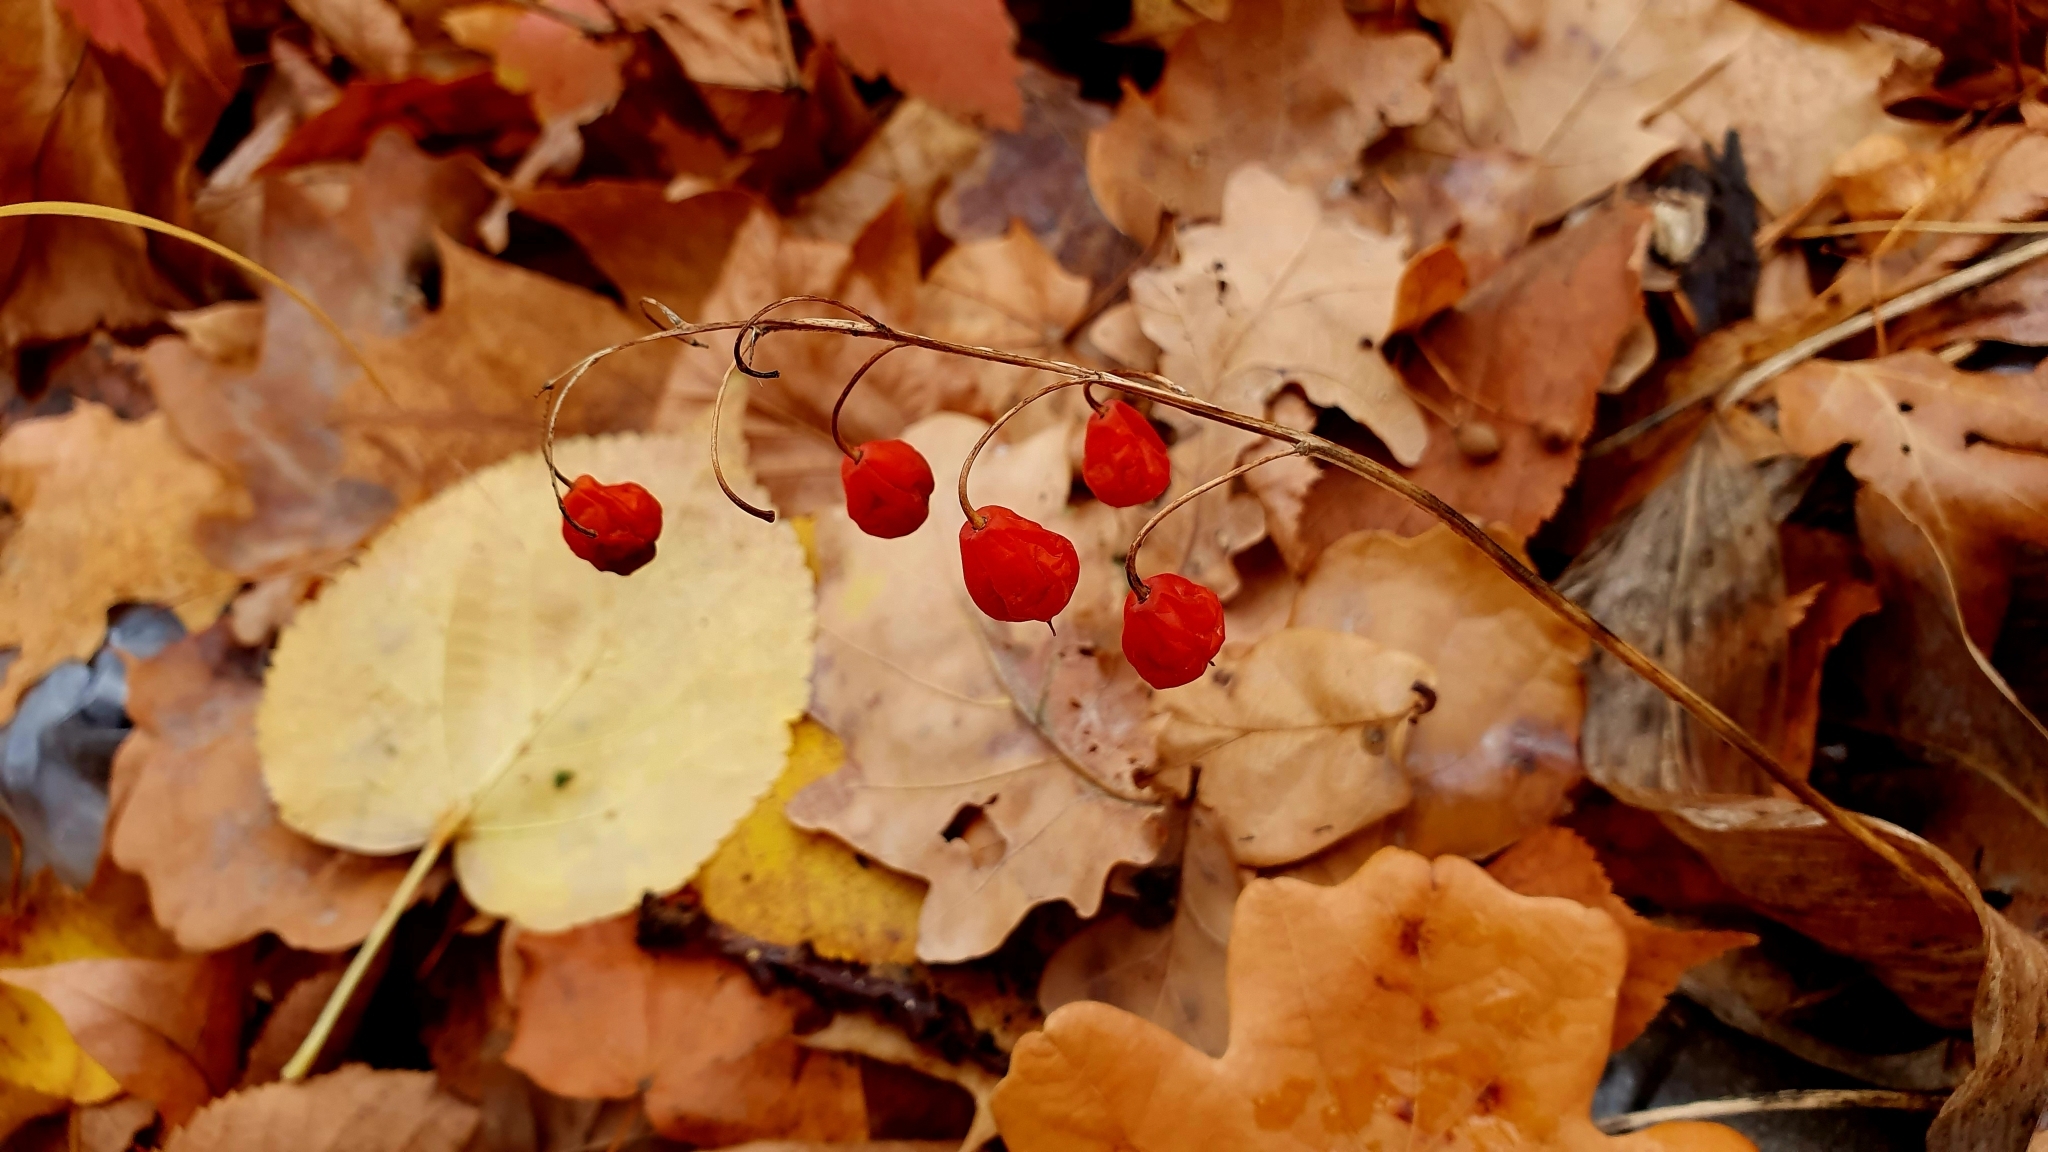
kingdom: Plantae
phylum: Tracheophyta
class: Liliopsida
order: Asparagales
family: Asparagaceae
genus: Convallaria
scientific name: Convallaria majalis
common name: Lily-of-the-valley
